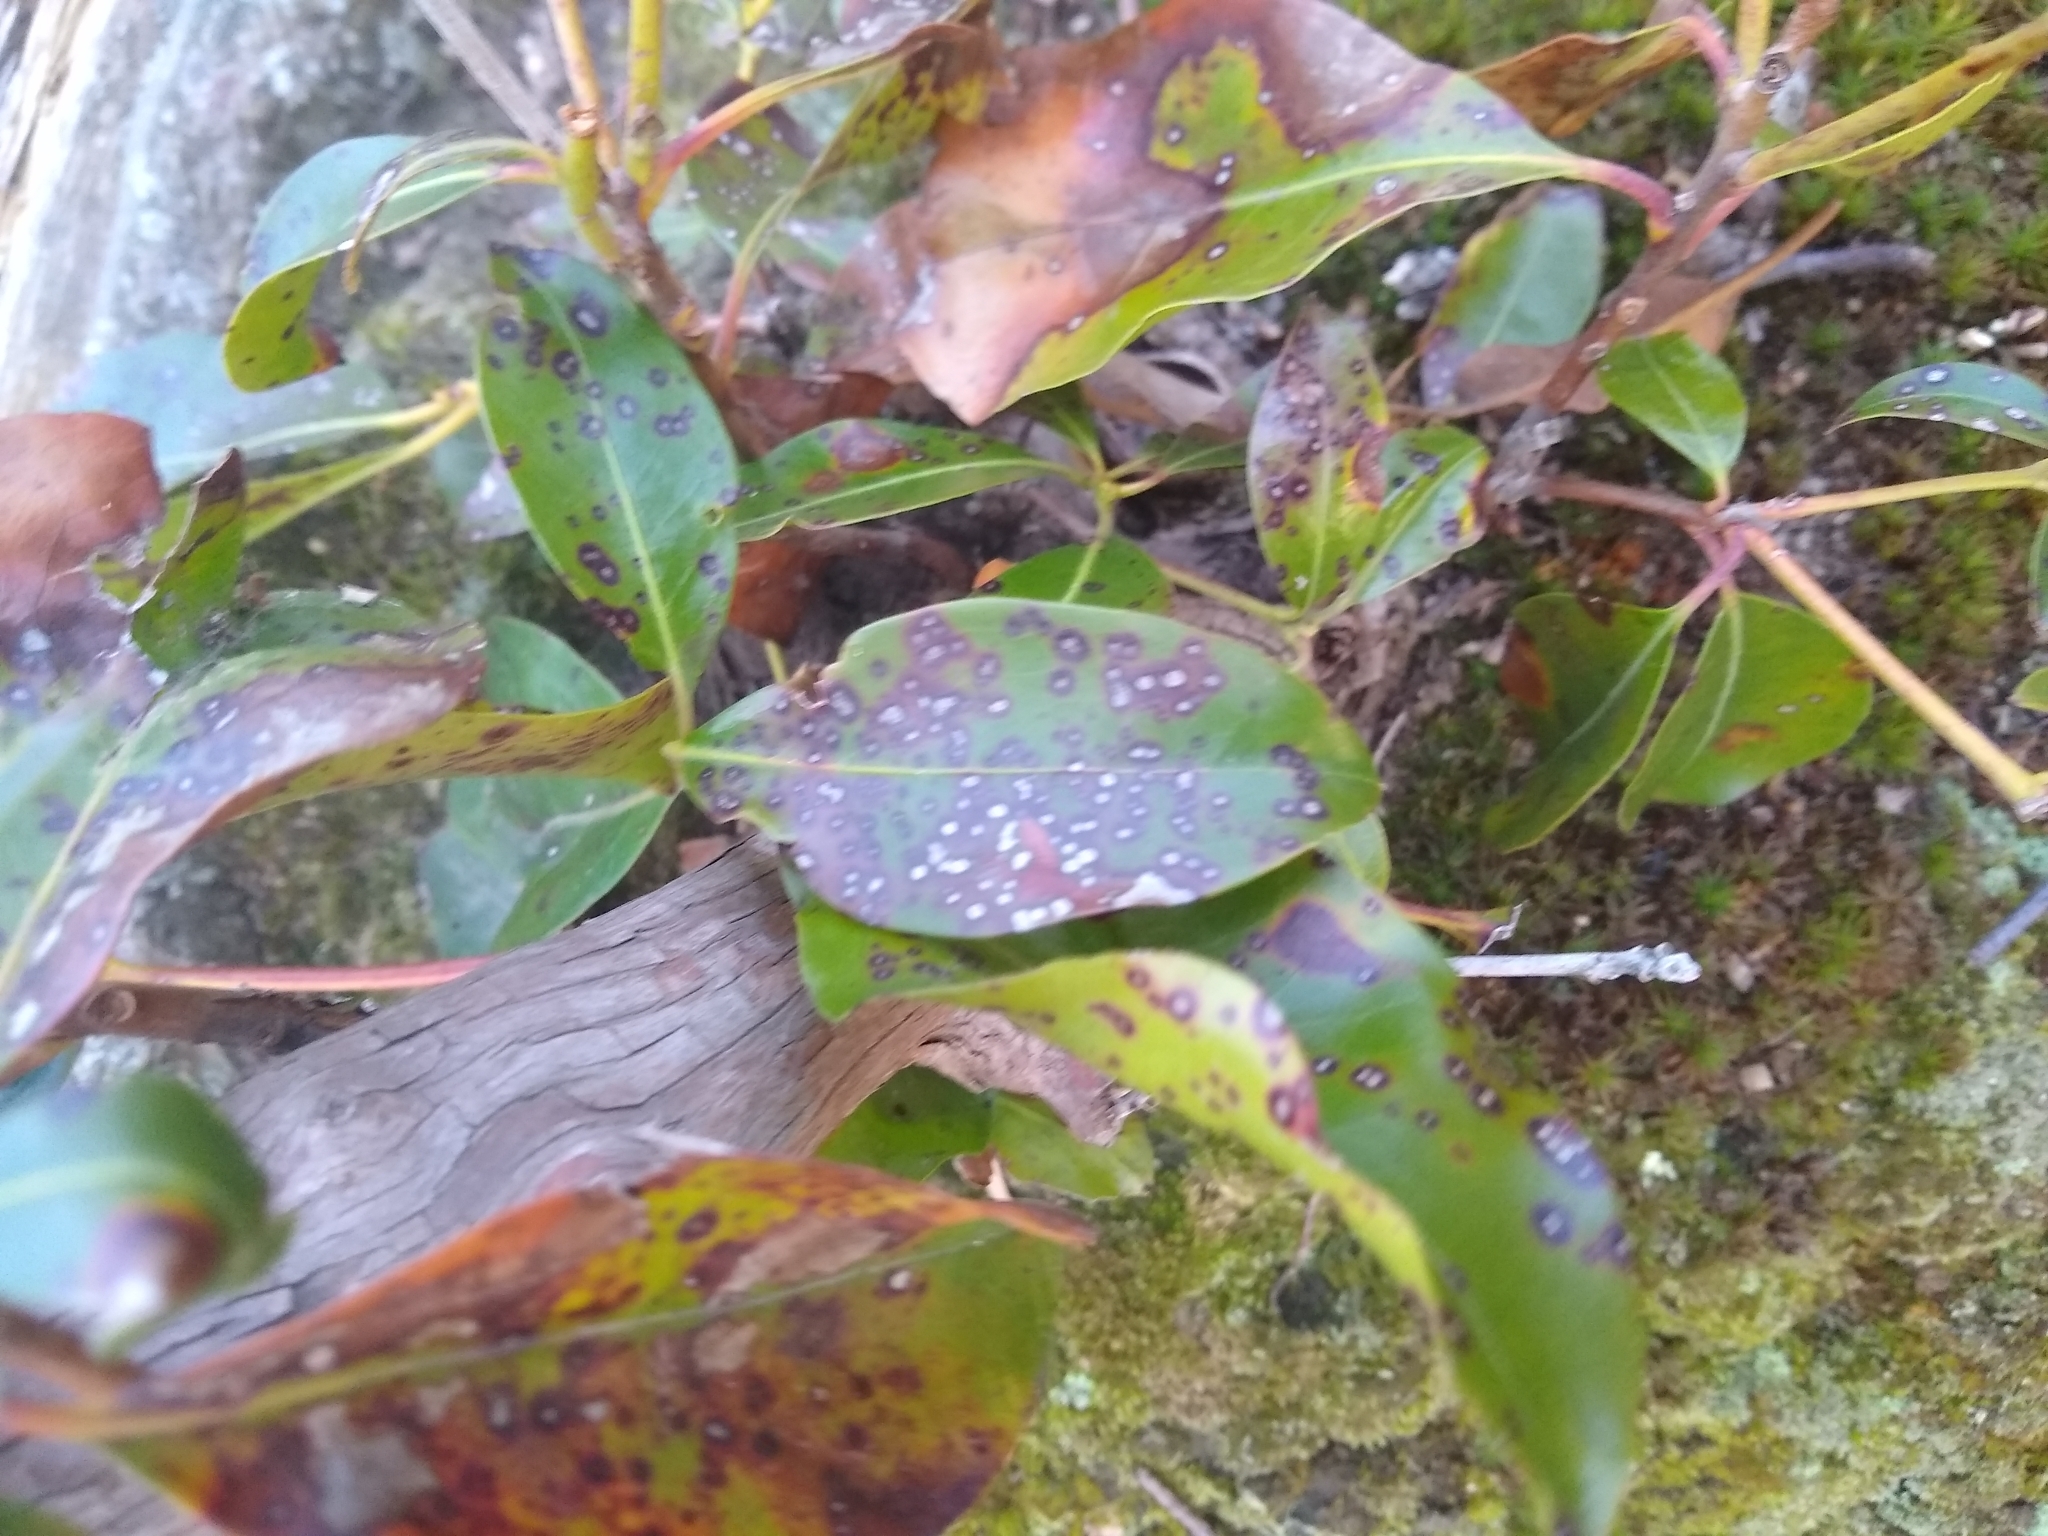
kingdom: Fungi
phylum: Ascomycota
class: Dothideomycetes
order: Mycosphaerellales
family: Mycosphaerellaceae
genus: Mycosphaerella
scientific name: Mycosphaerella colorata
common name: Mountain laurel leaf spot
